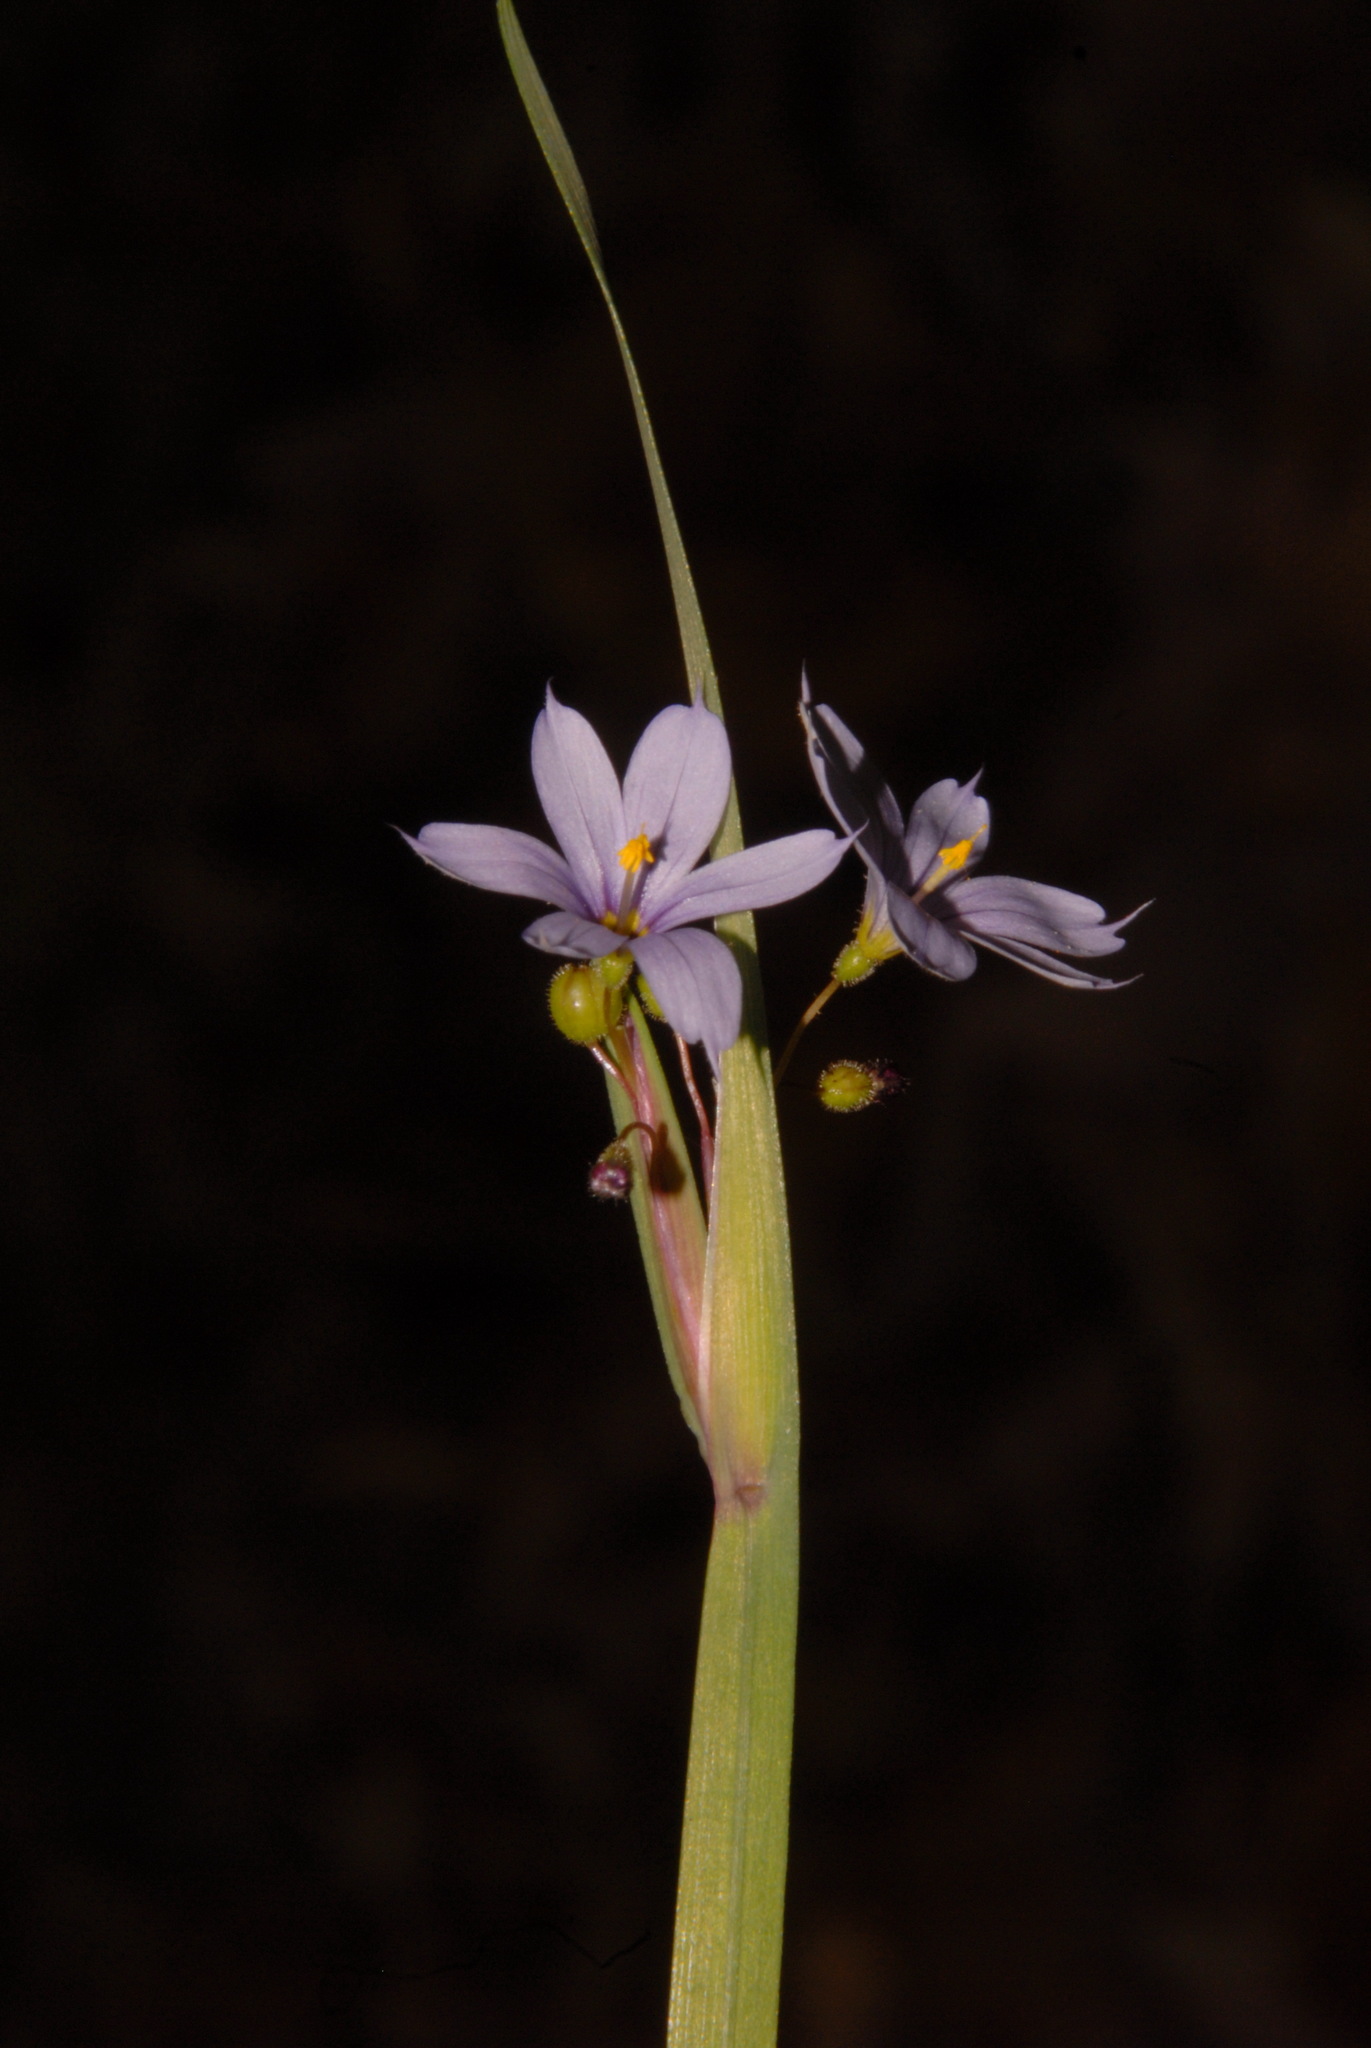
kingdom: Plantae
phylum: Tracheophyta
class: Liliopsida
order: Asparagales
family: Iridaceae
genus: Sisyrinchium
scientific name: Sisyrinchium albidum
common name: Pale blue-eyed-grass
